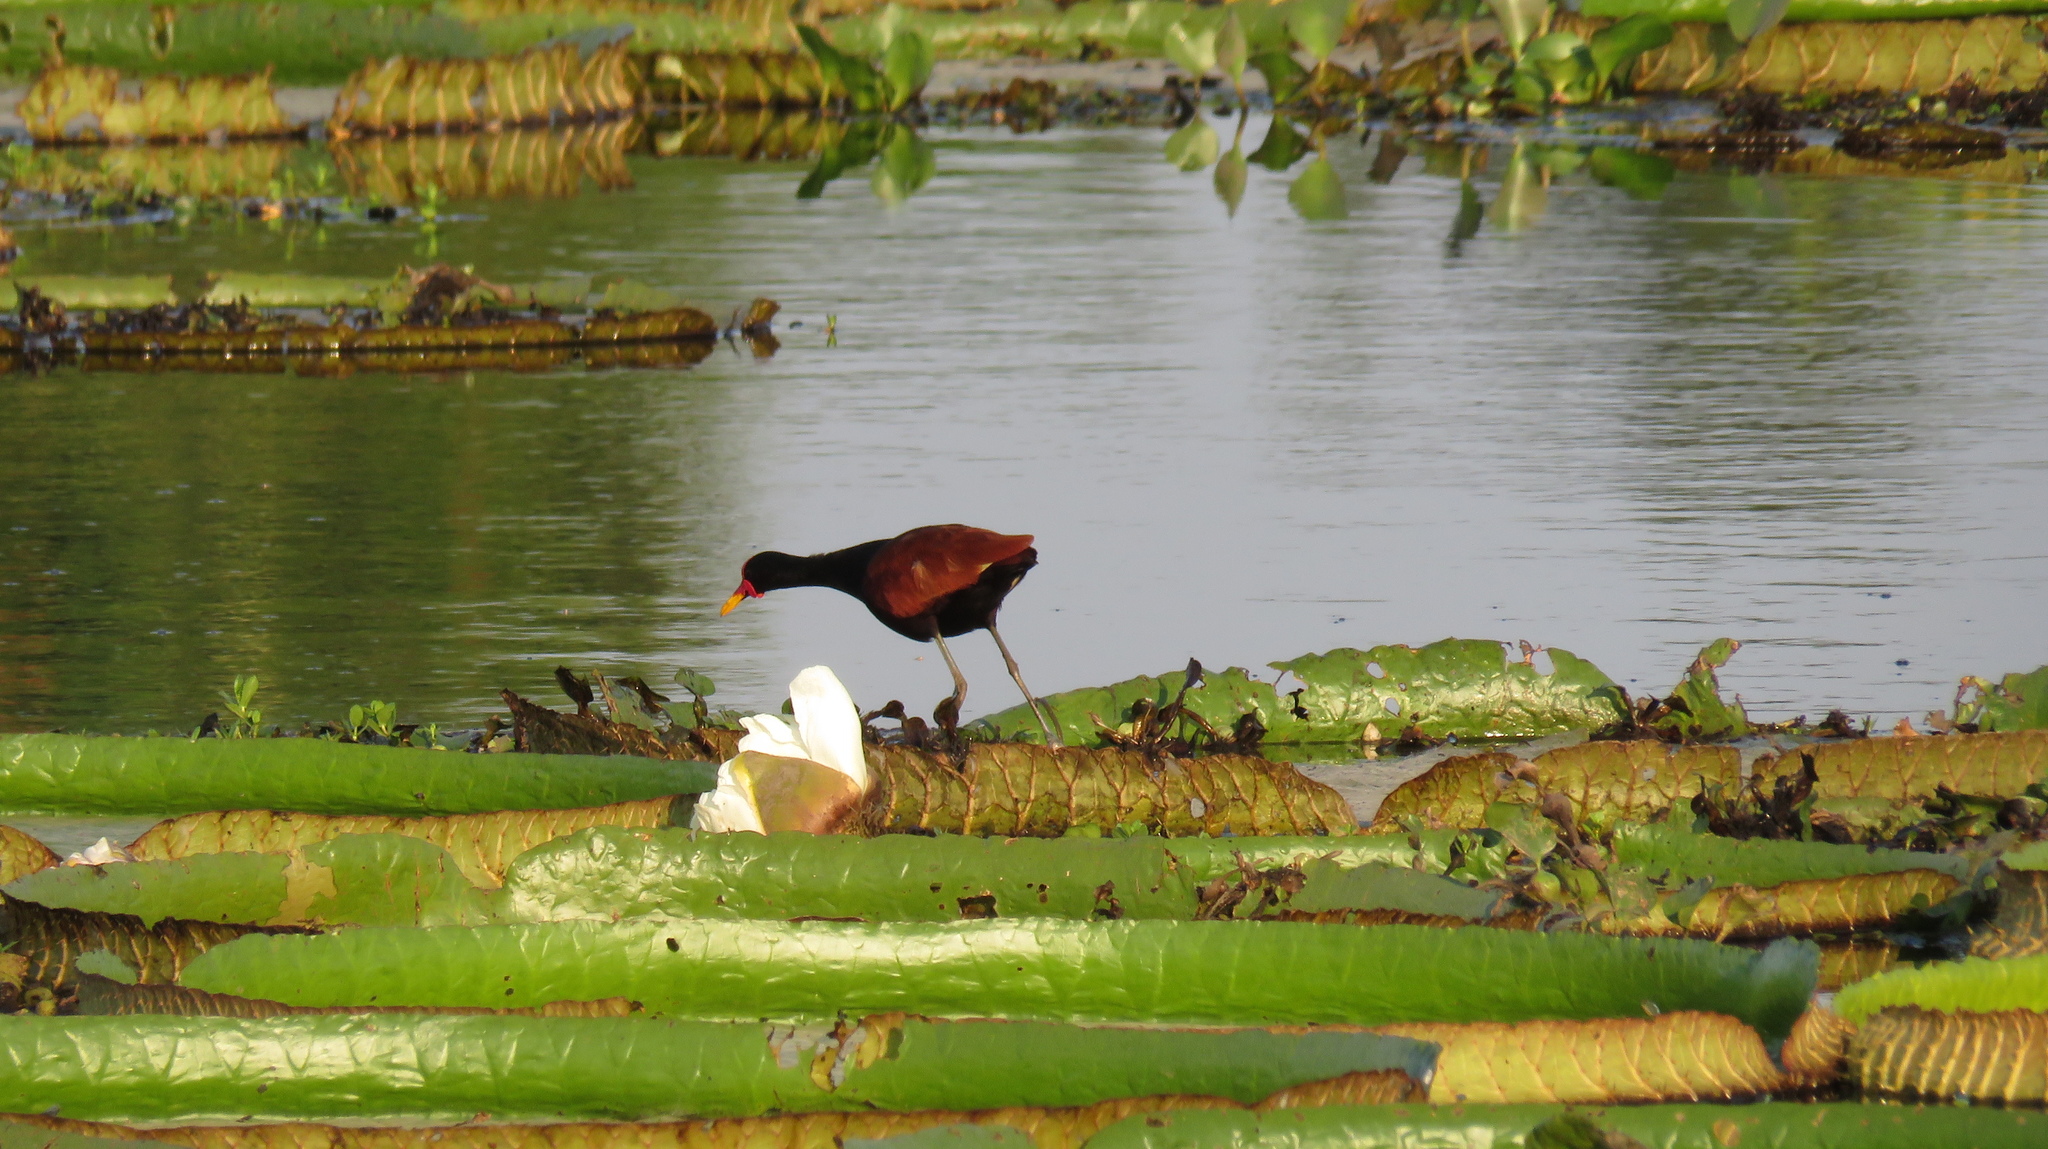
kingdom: Animalia
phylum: Chordata
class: Aves
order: Charadriiformes
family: Jacanidae
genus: Jacana
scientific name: Jacana jacana
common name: Wattled jacana
